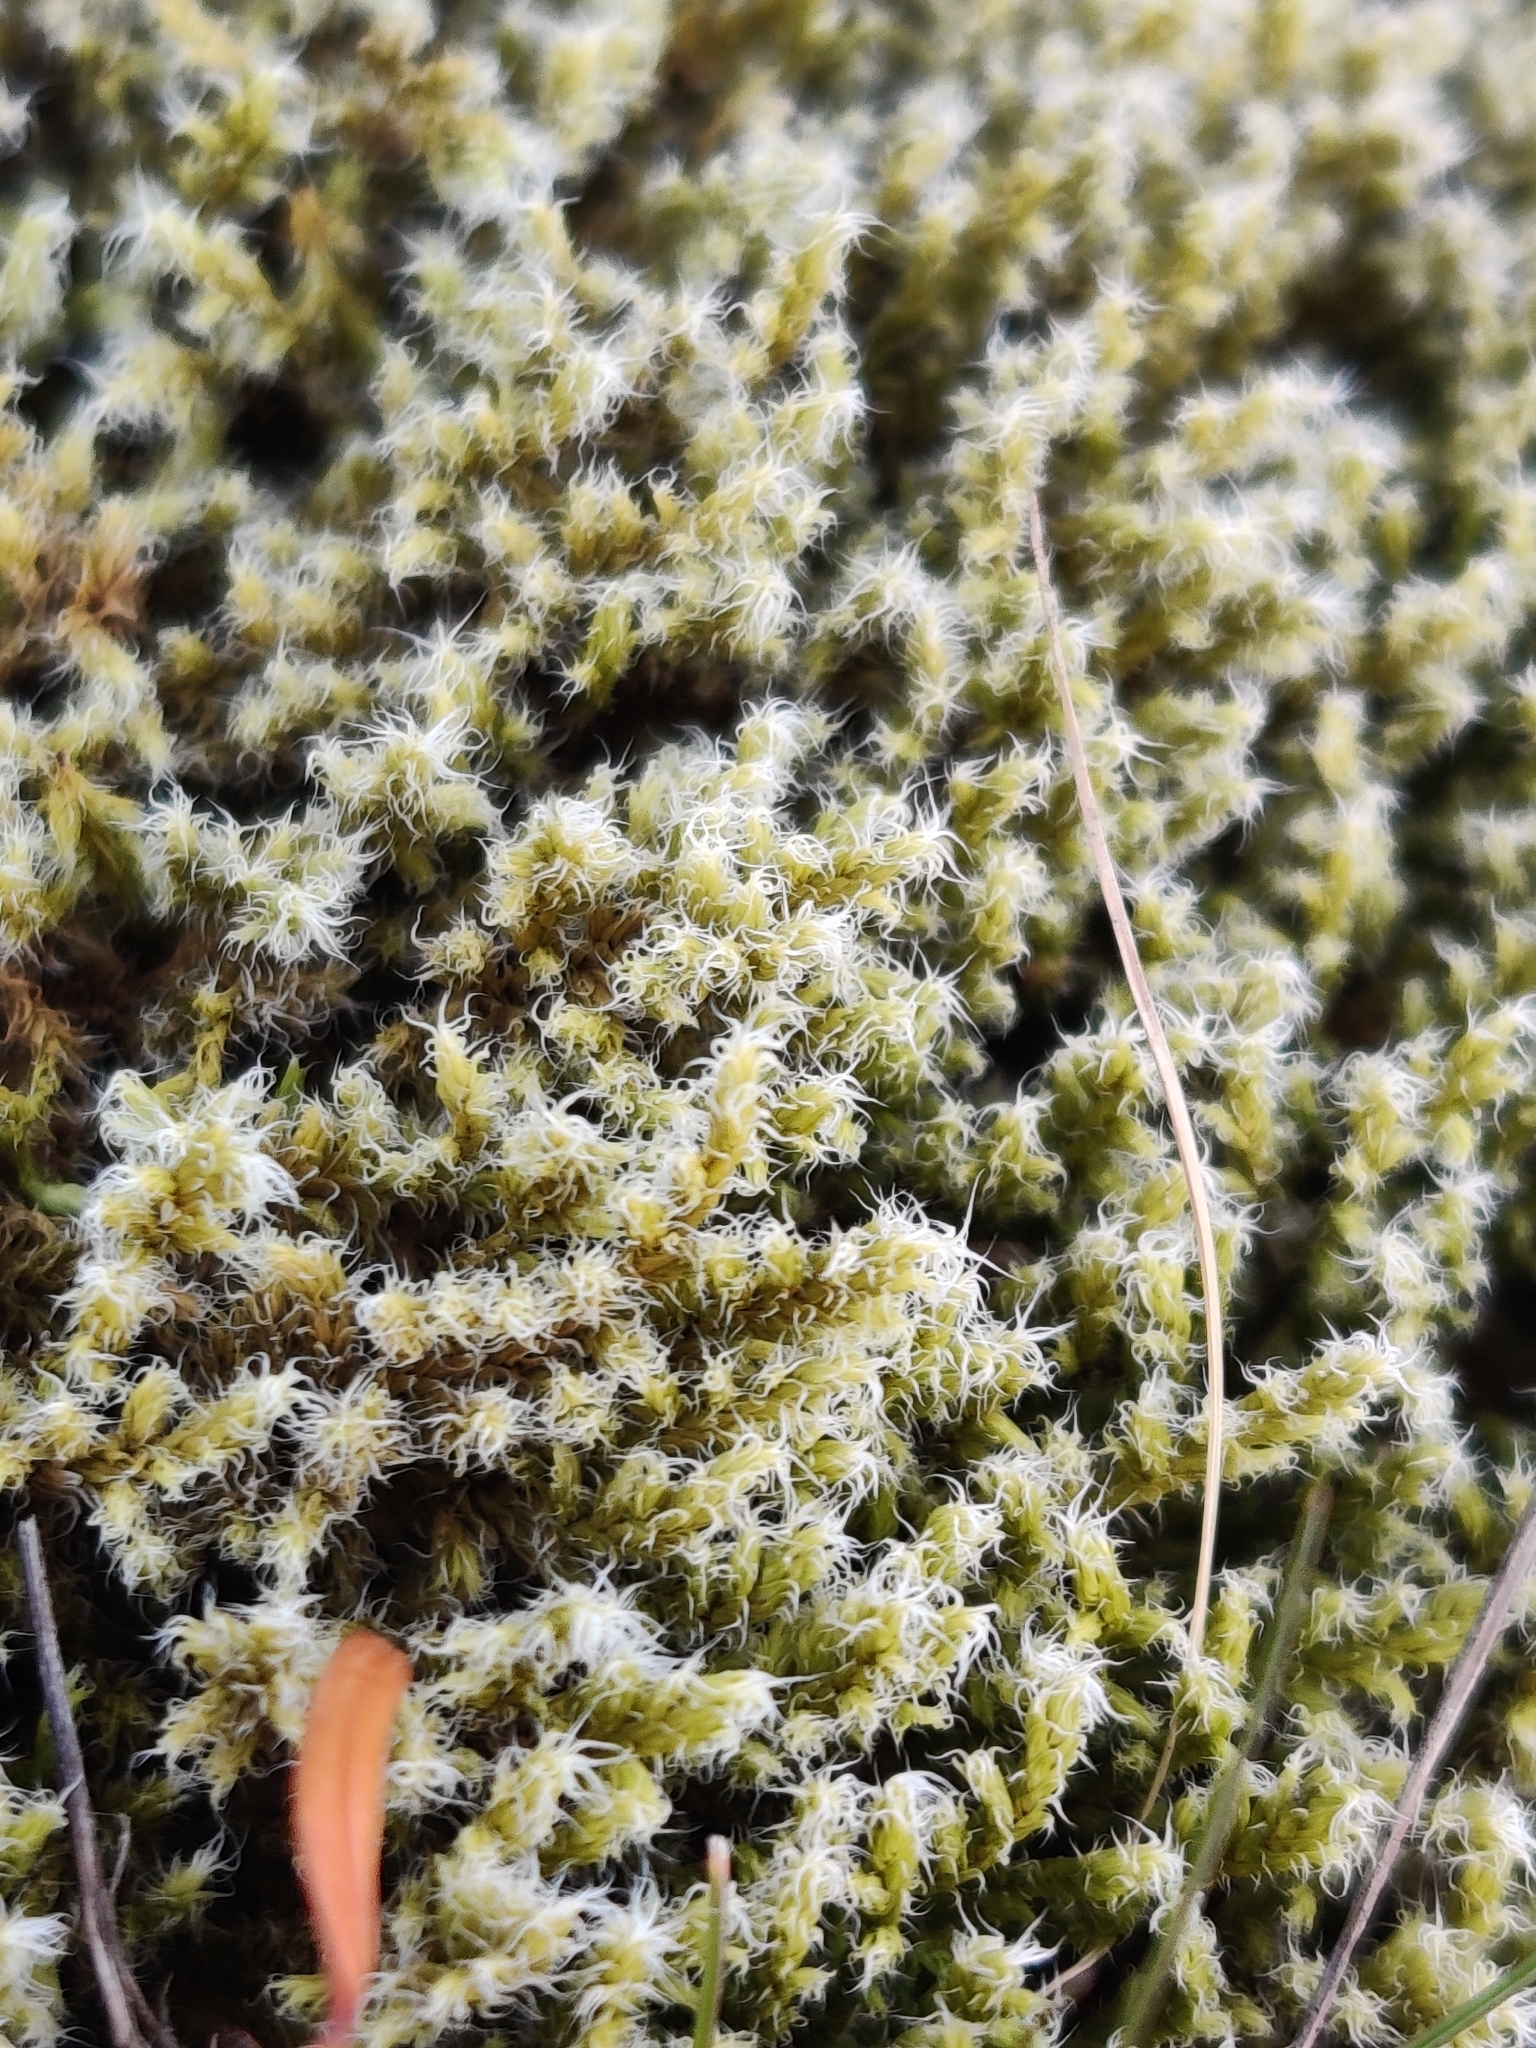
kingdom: Plantae
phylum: Bryophyta
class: Bryopsida
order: Grimmiales
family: Grimmiaceae
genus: Niphotrichum
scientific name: Niphotrichum elongatum
